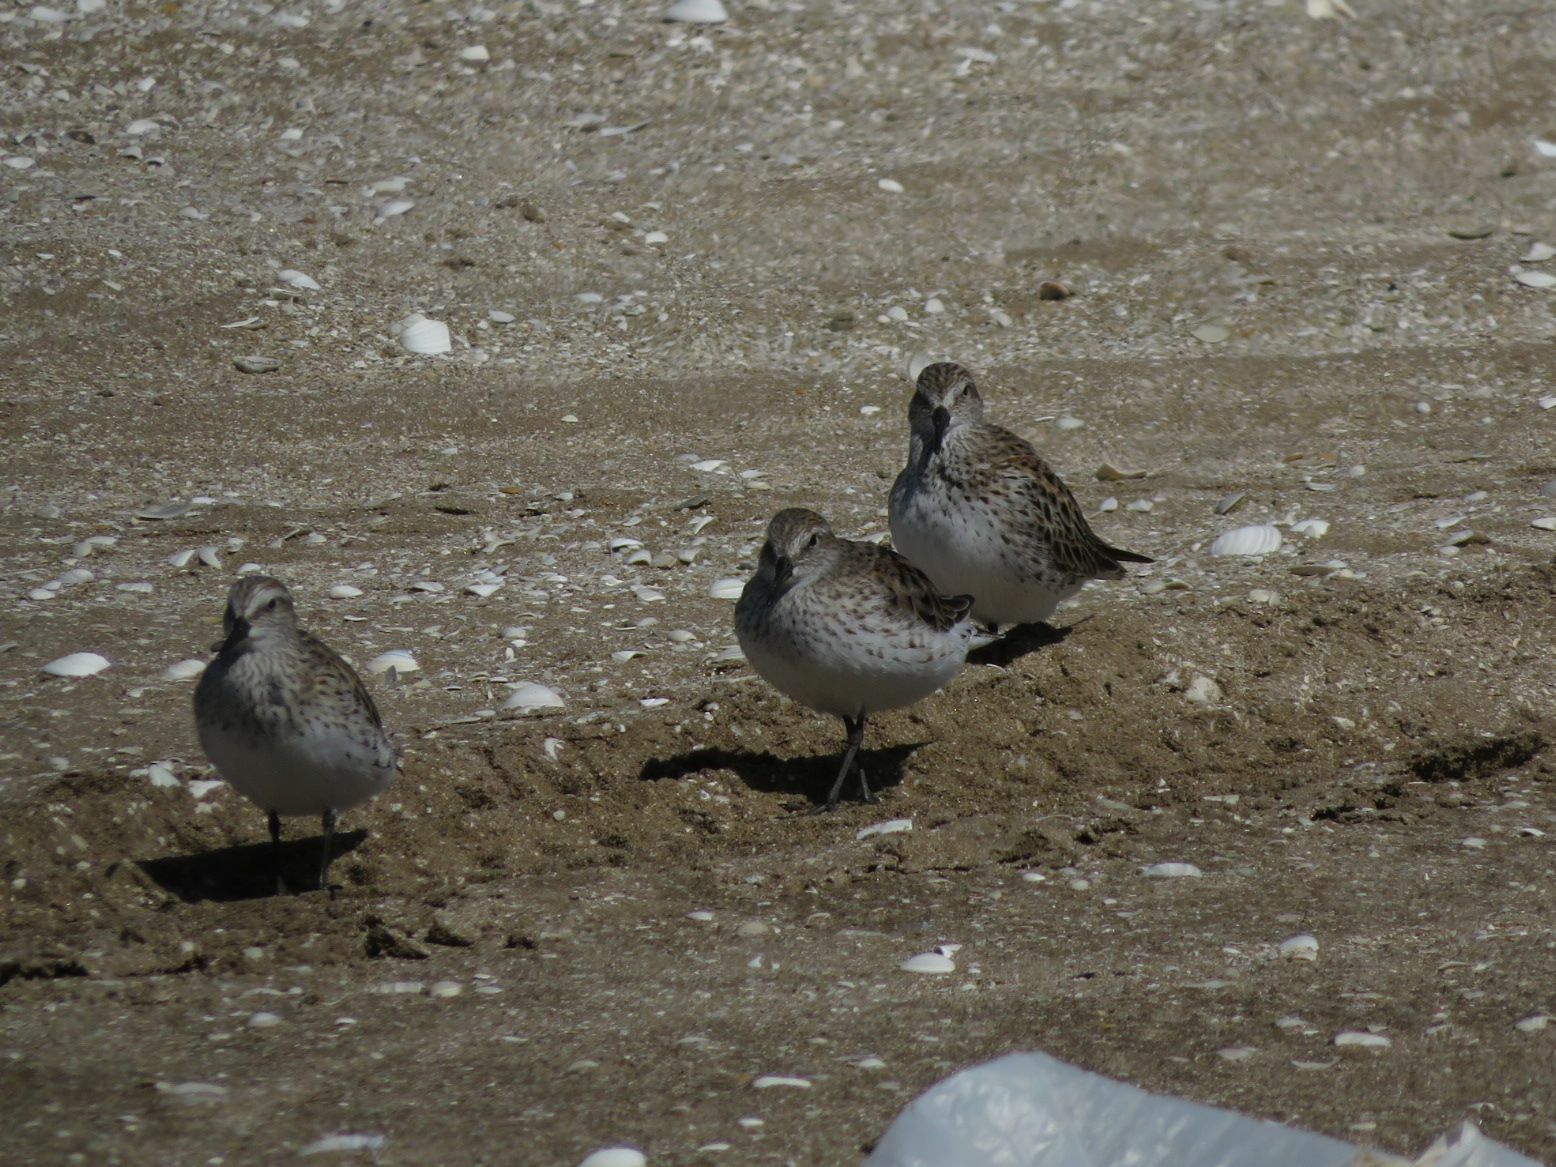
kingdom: Animalia
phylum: Chordata
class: Aves
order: Charadriiformes
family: Scolopacidae
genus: Calidris
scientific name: Calidris fuscicollis
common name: White-rumped sandpiper
